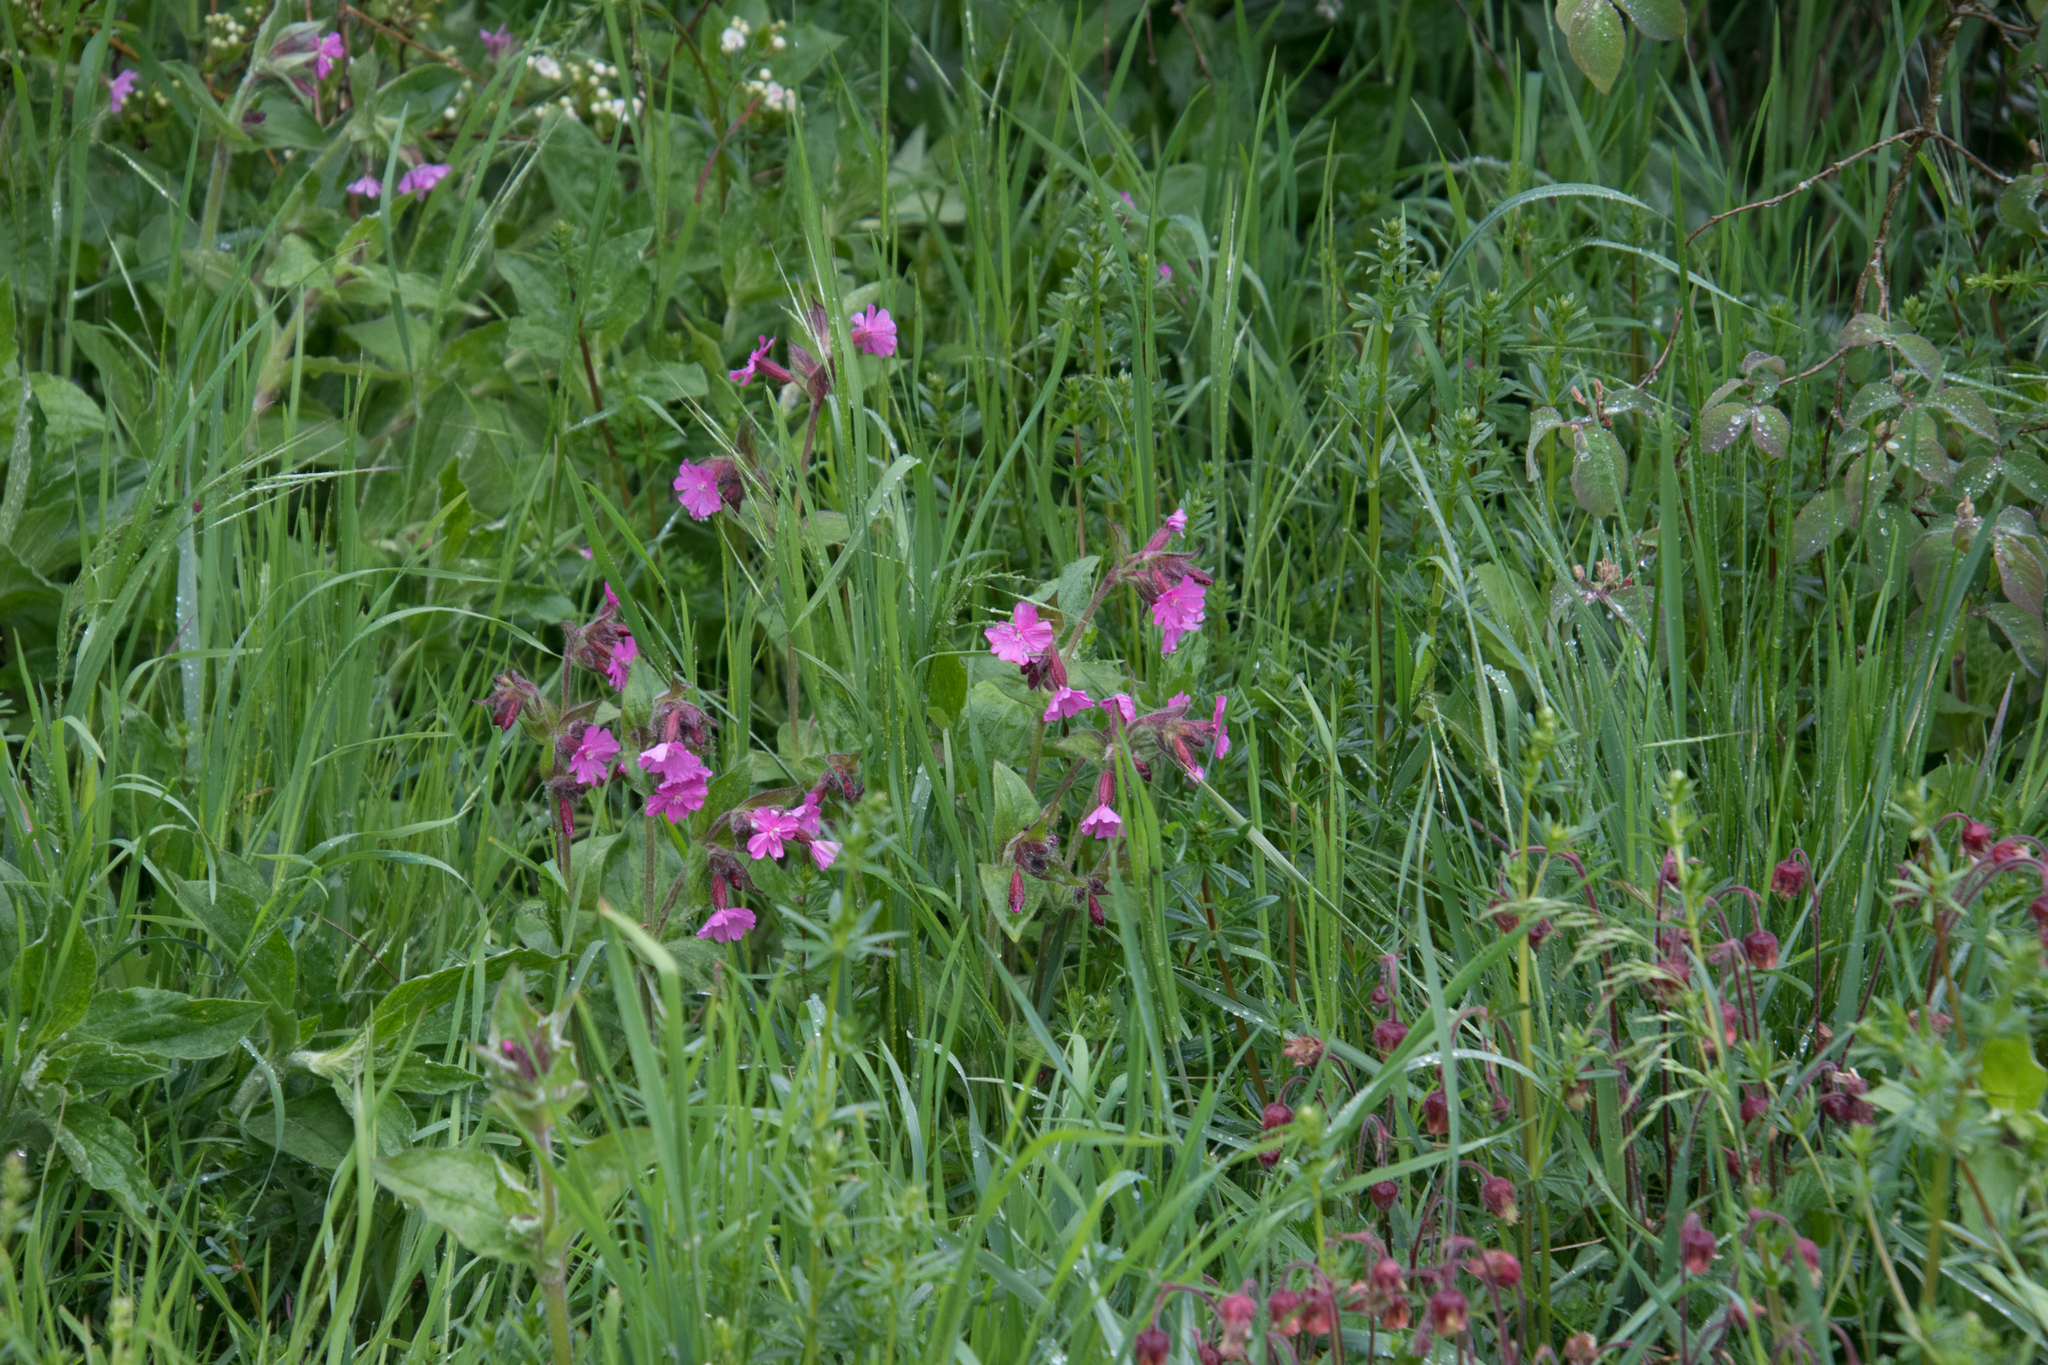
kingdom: Plantae
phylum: Tracheophyta
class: Magnoliopsida
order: Caryophyllales
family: Caryophyllaceae
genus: Silene
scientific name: Silene dioica
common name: Red campion
